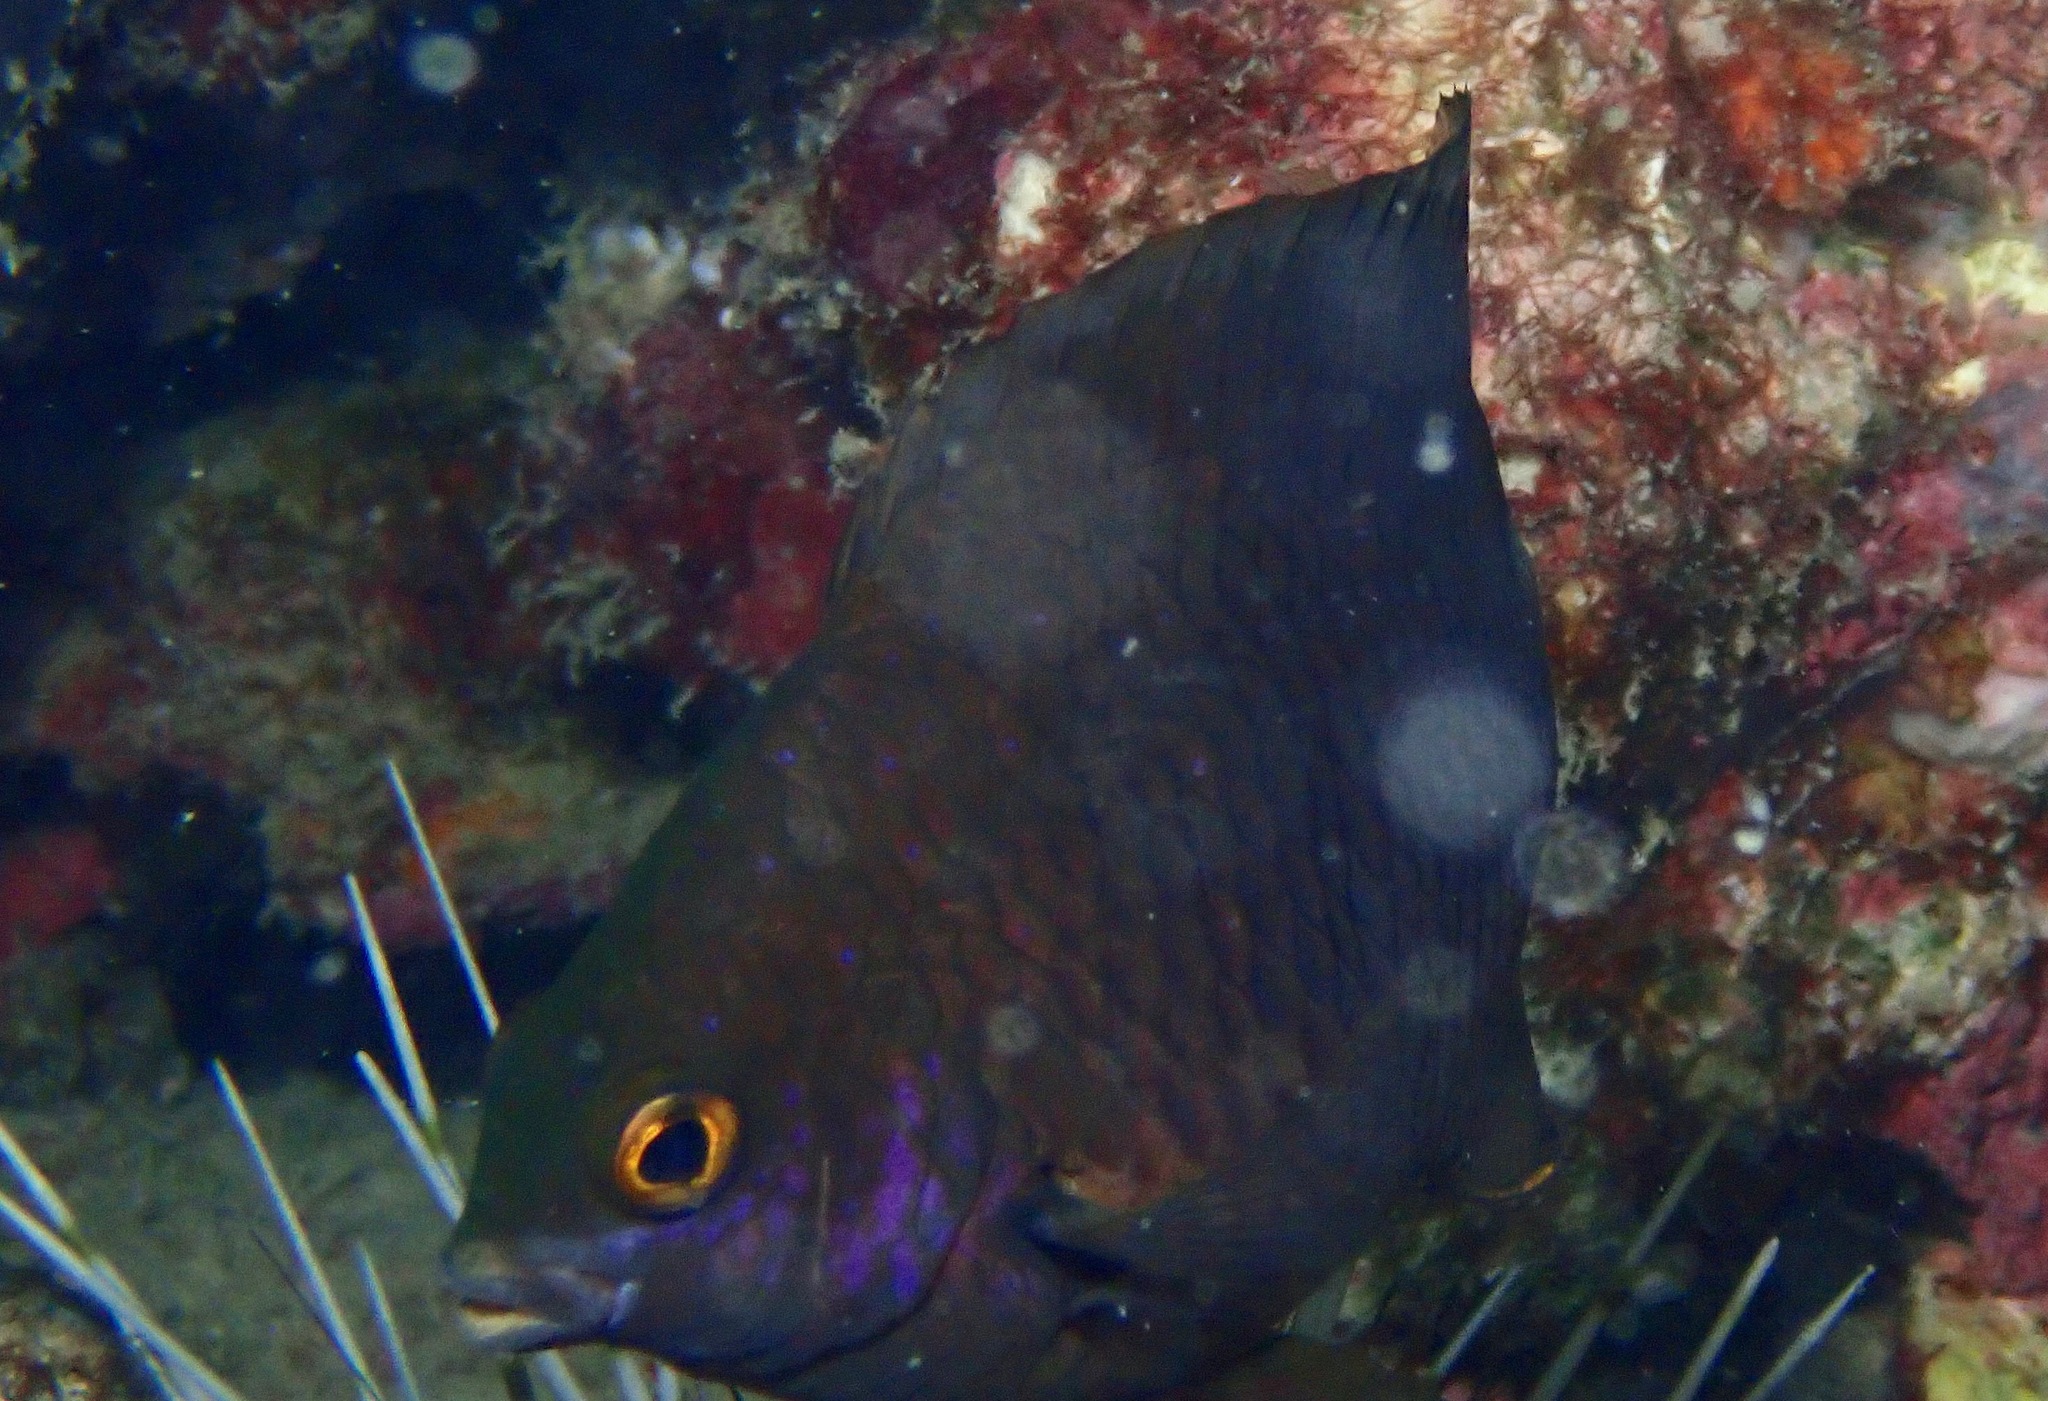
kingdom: Animalia
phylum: Chordata
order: Perciformes
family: Pomacentridae
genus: Plectroglyphidodon
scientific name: Plectroglyphidodon lacrymatus
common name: Jewel damsel
